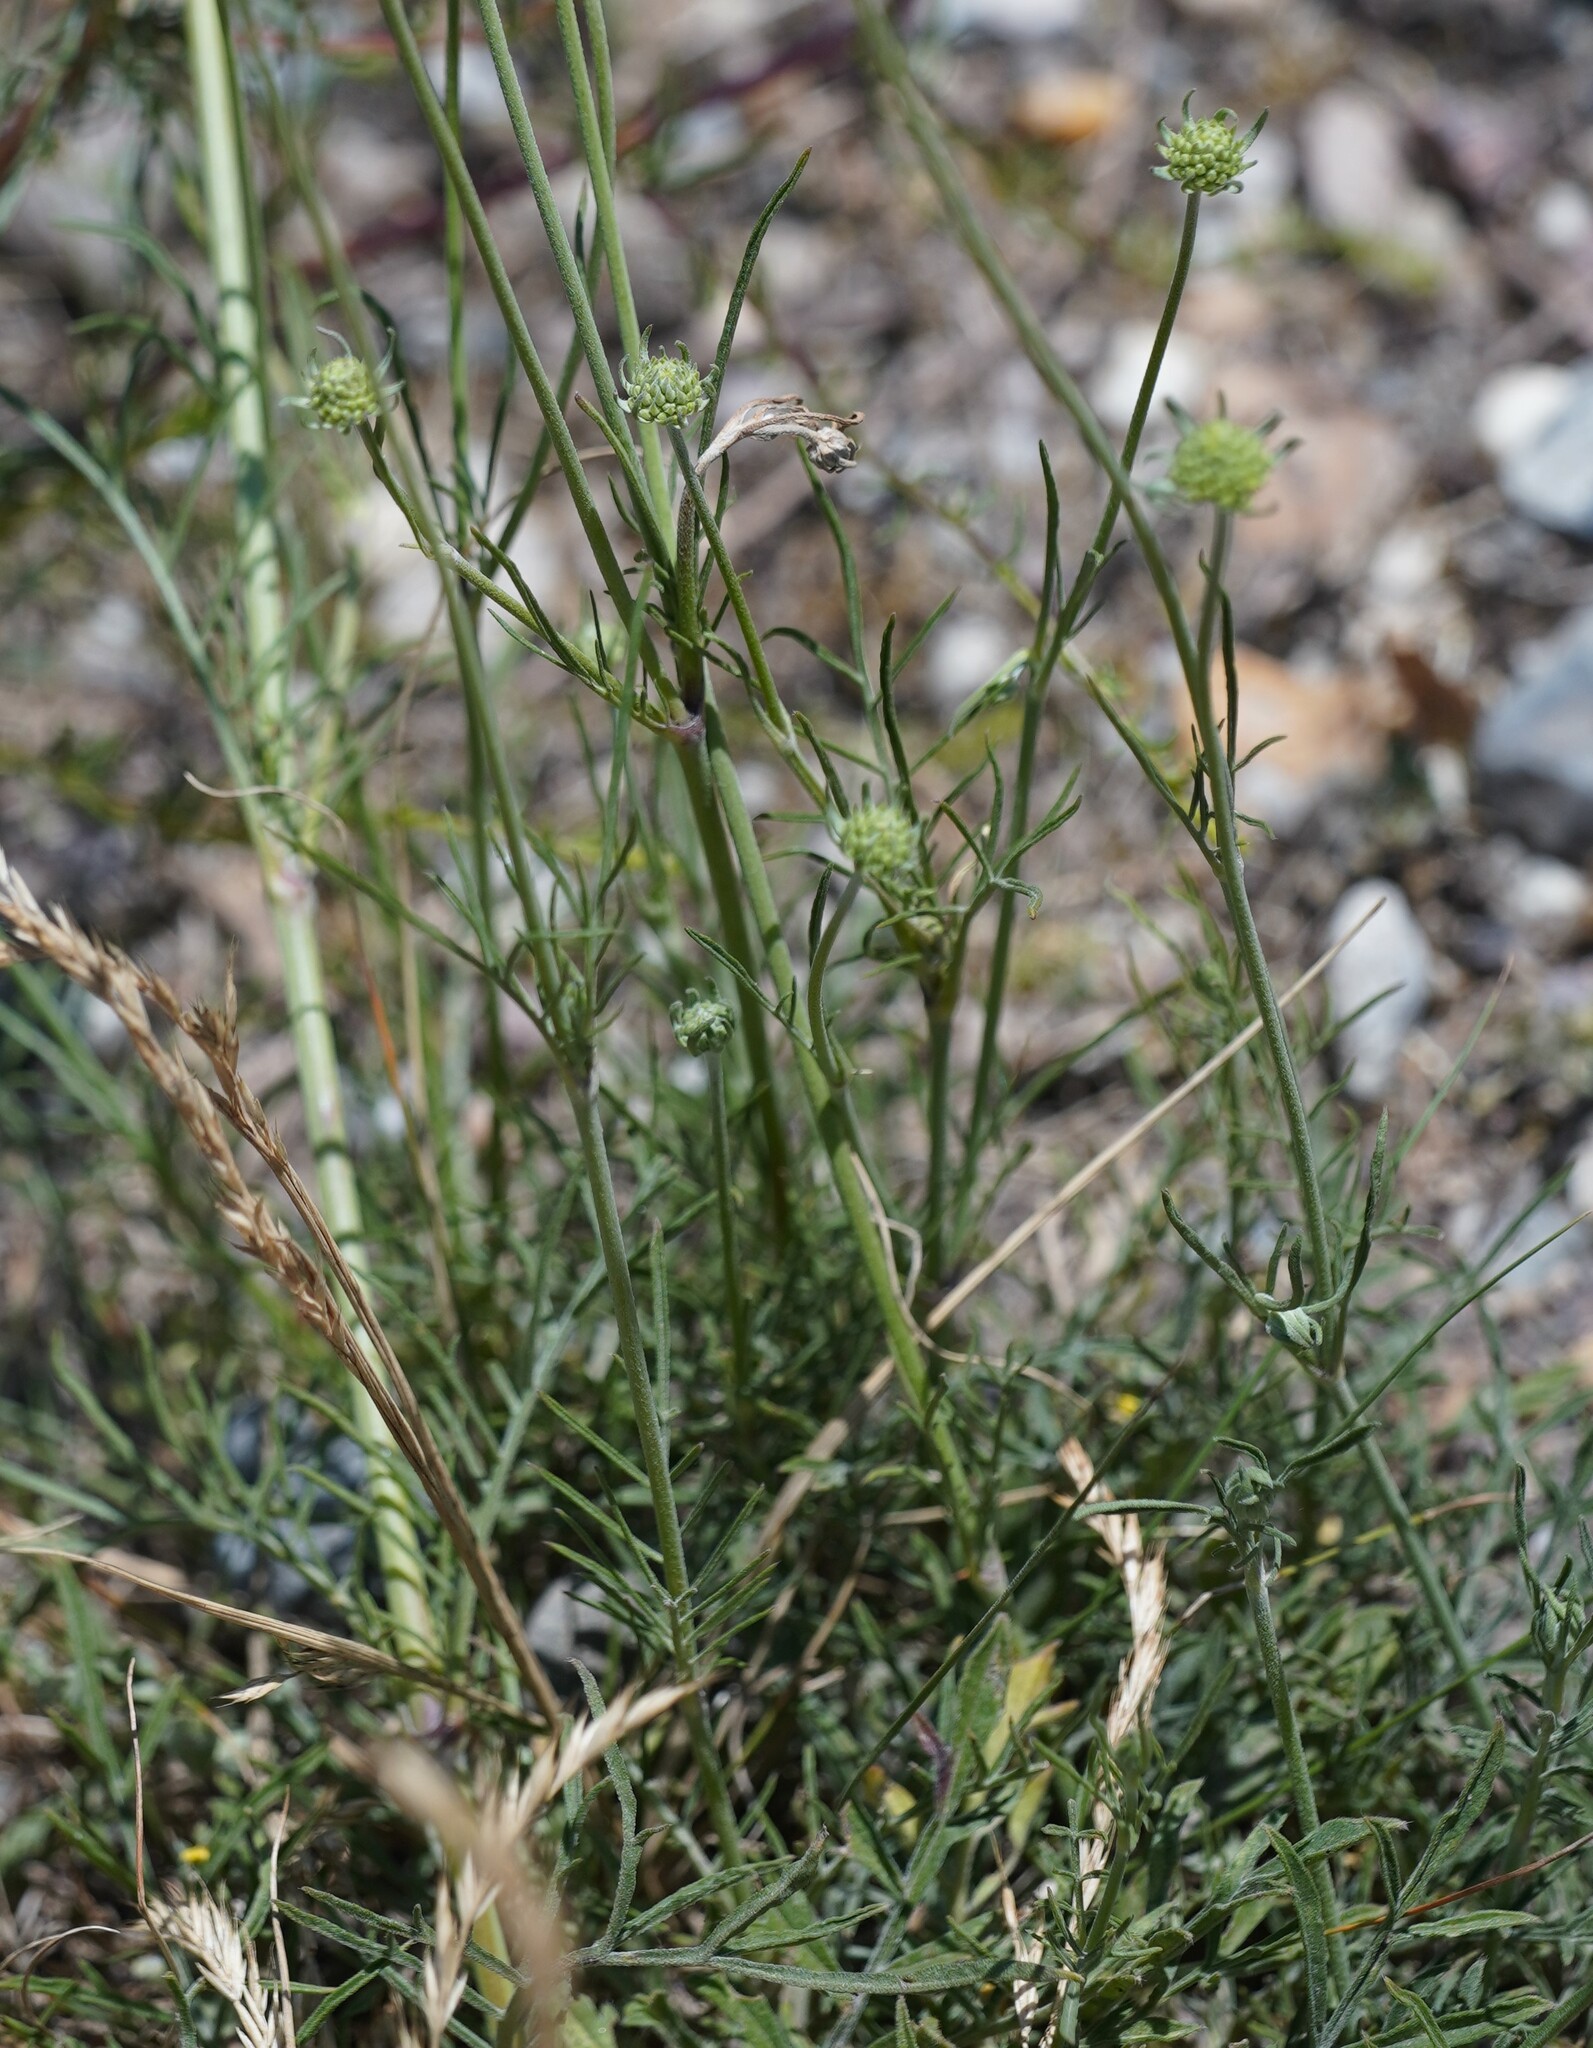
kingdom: Plantae
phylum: Tracheophyta
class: Magnoliopsida
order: Dipsacales
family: Caprifoliaceae
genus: Scabiosa
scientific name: Scabiosa ochroleuca
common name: Cream pincushions
